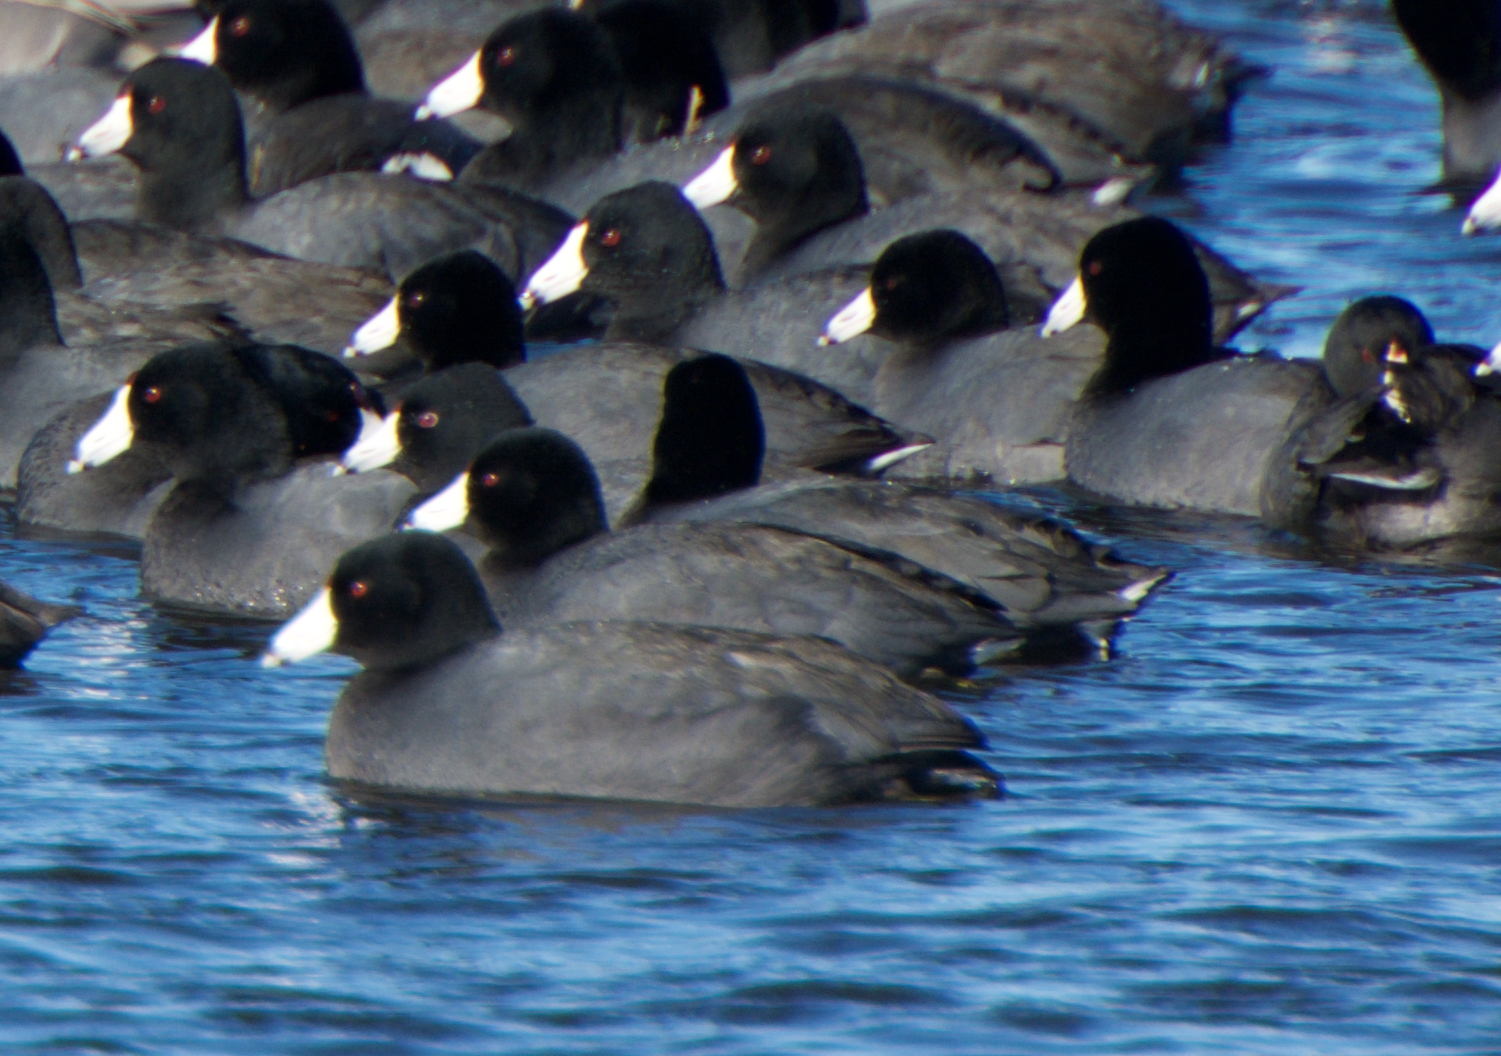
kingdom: Animalia
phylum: Chordata
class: Aves
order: Gruiformes
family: Rallidae
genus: Fulica
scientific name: Fulica americana
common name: American coot
